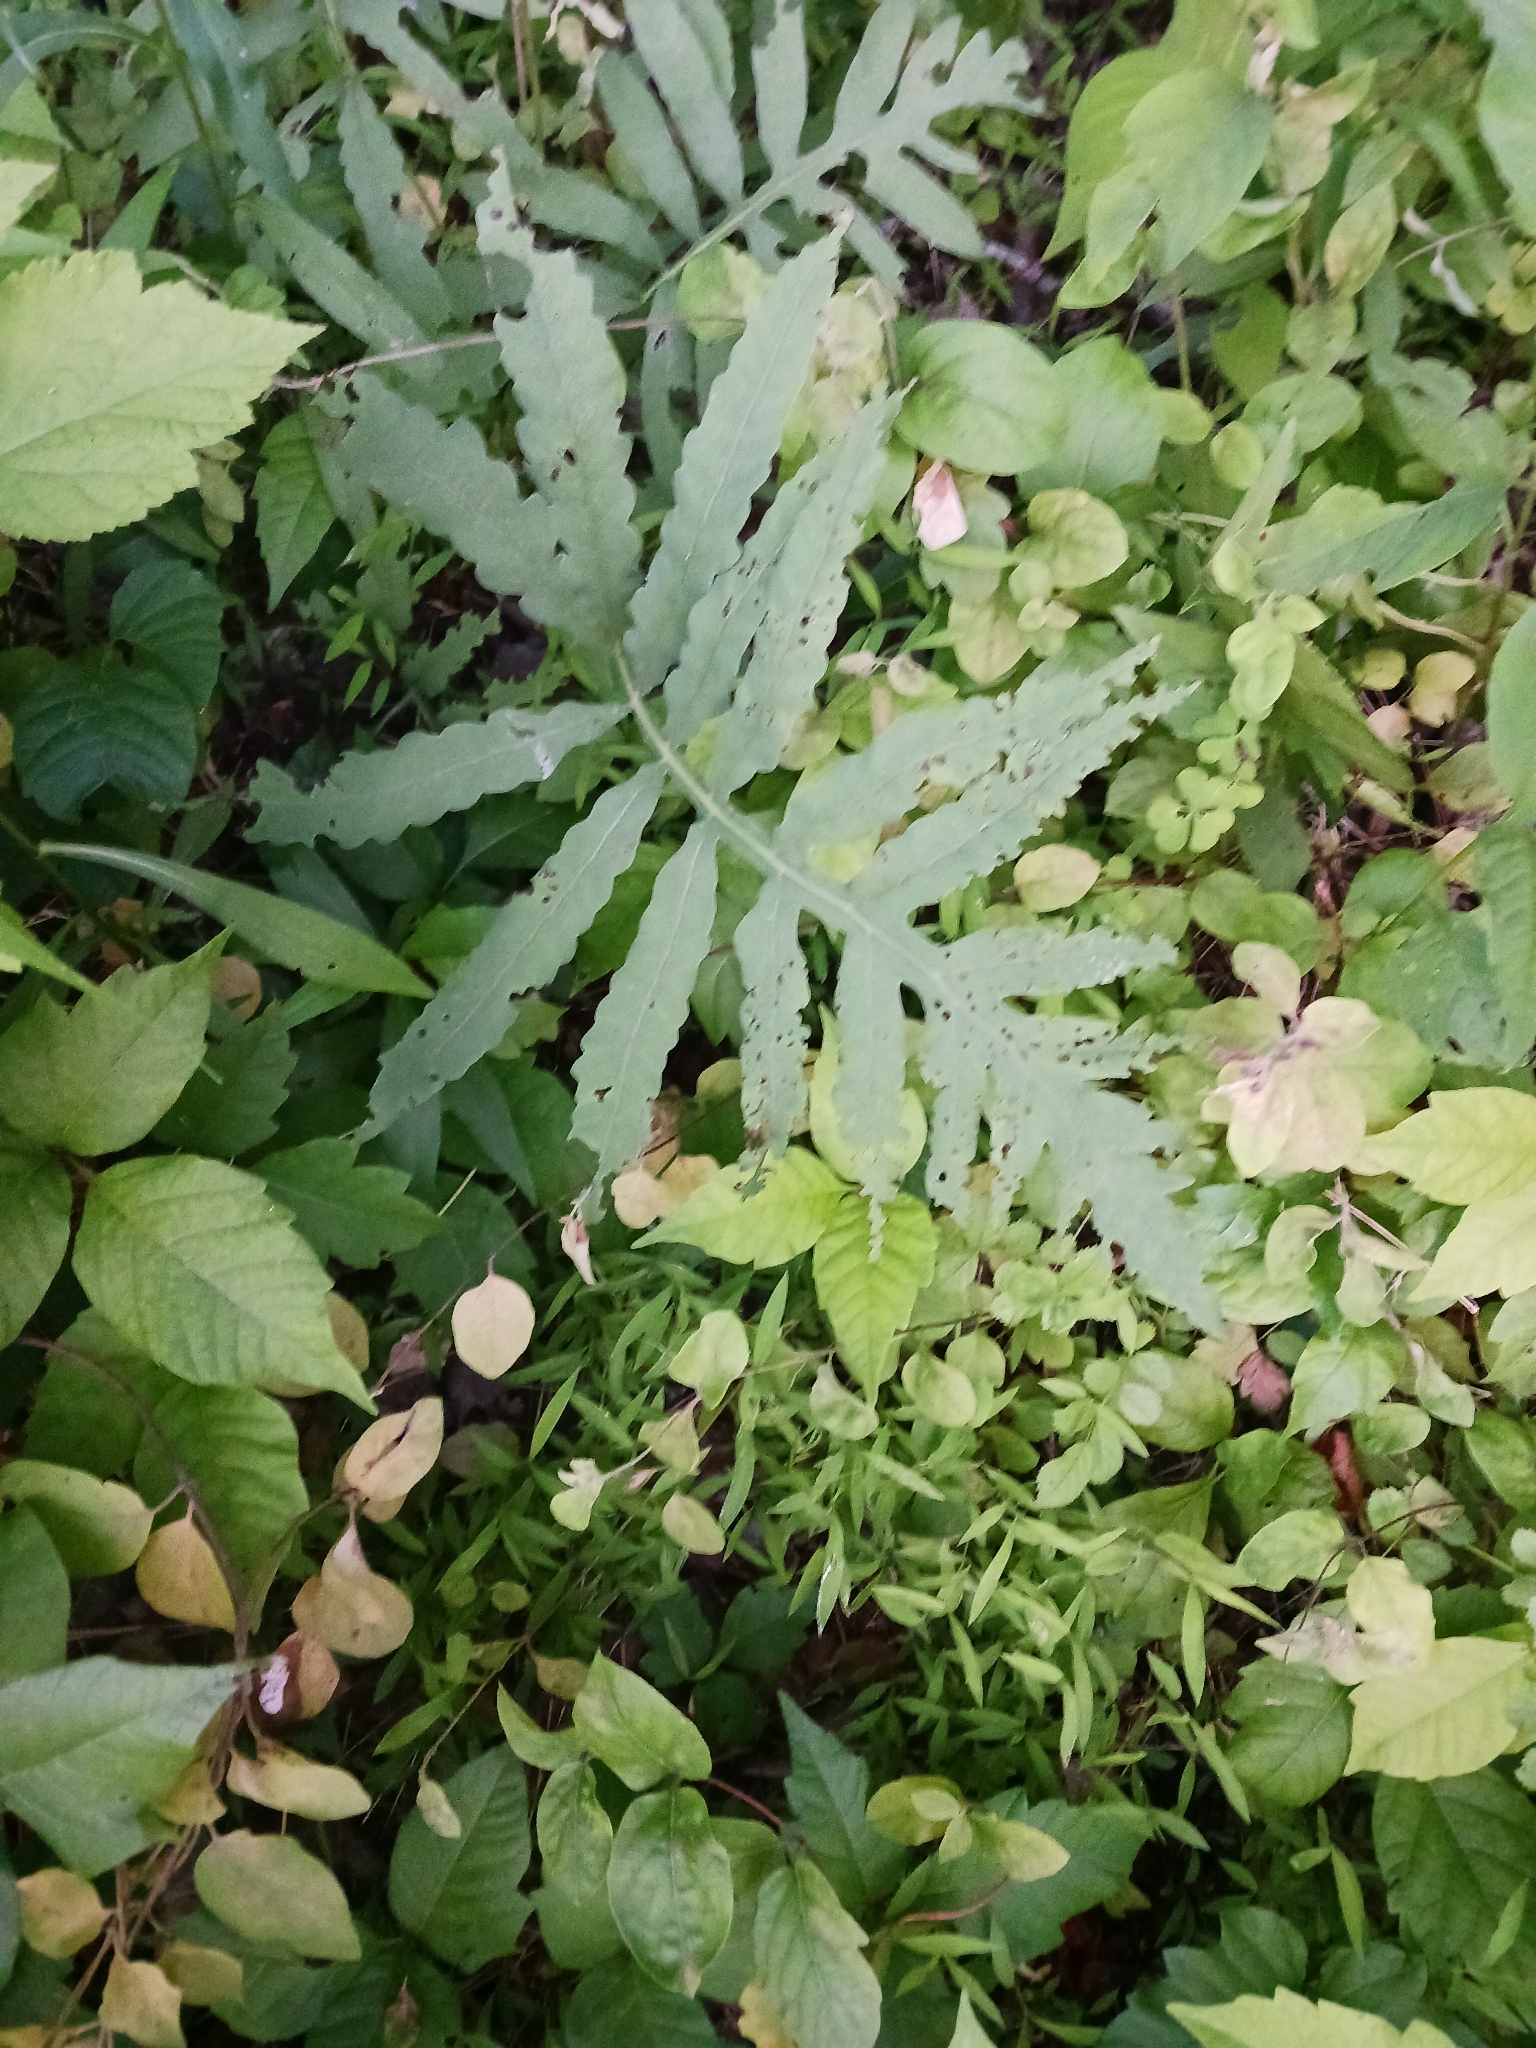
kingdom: Plantae
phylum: Tracheophyta
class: Polypodiopsida
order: Polypodiales
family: Onocleaceae
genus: Onoclea
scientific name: Onoclea sensibilis
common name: Sensitive fern
